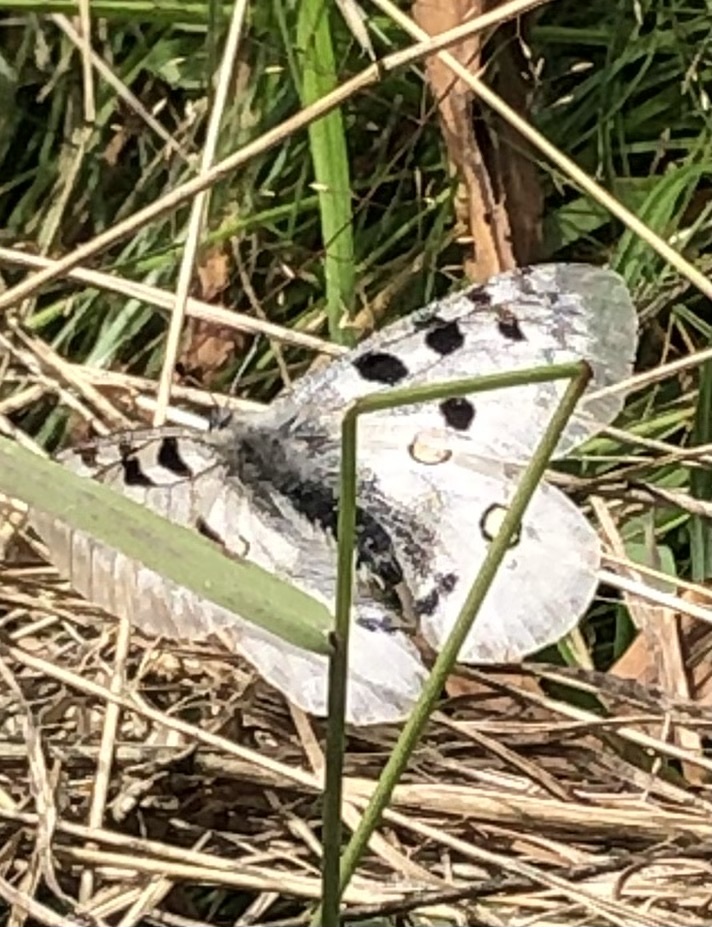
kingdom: Animalia
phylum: Arthropoda
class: Insecta
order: Lepidoptera
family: Papilionidae
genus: Parnassius
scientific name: Parnassius apollo
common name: Apollo
